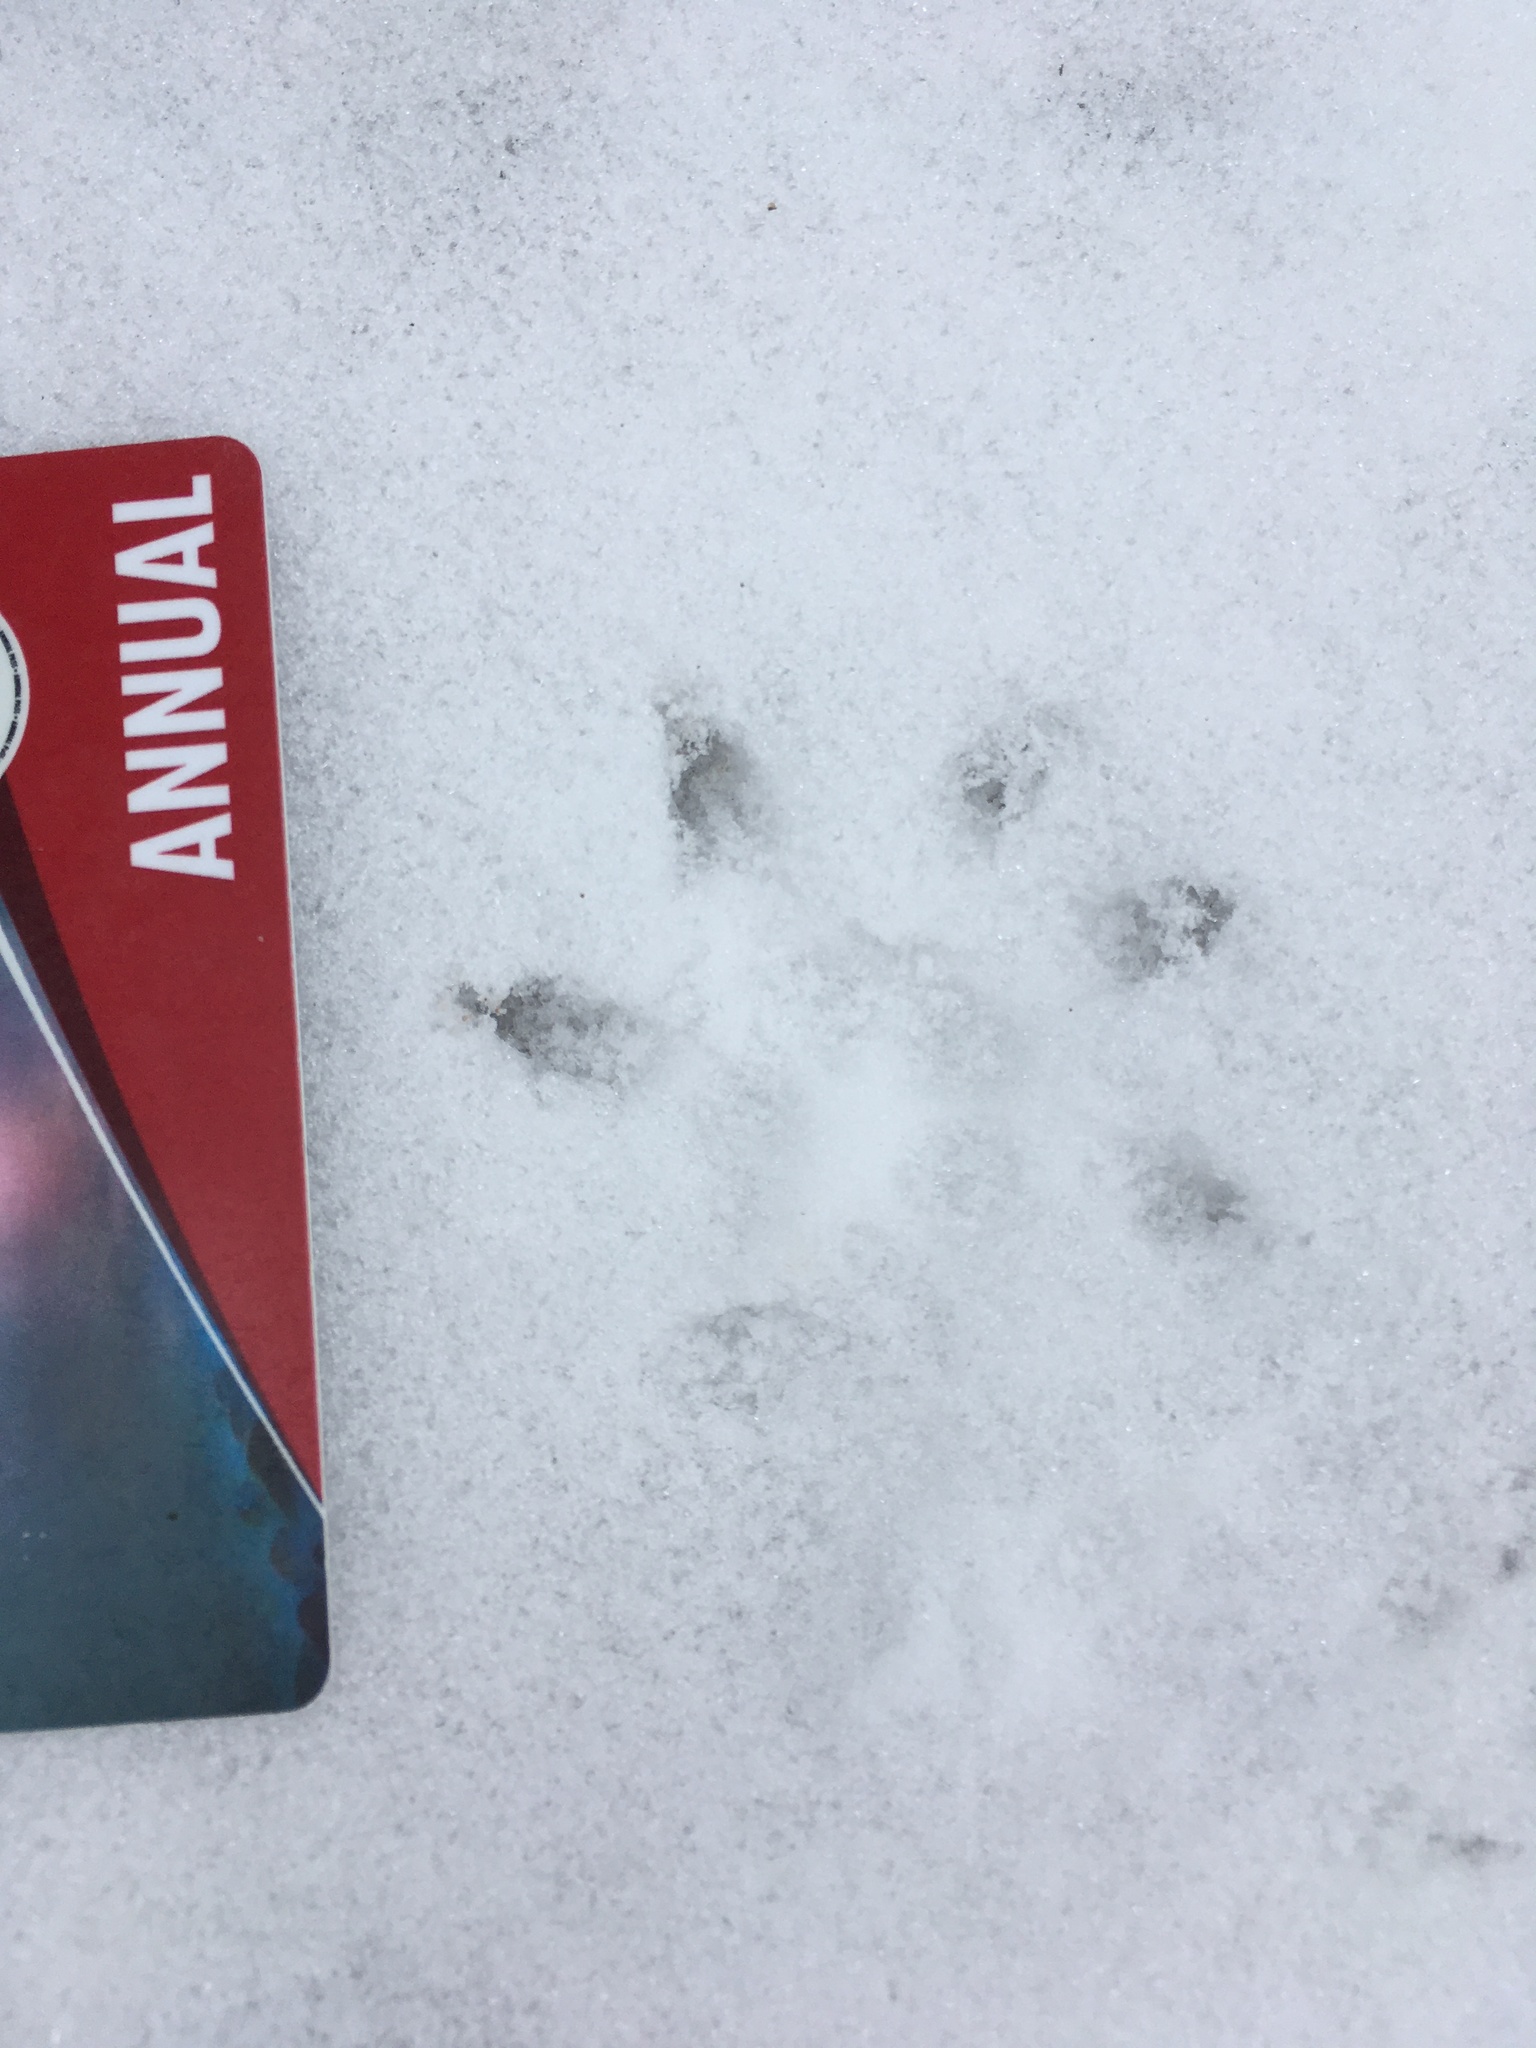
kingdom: Animalia
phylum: Chordata
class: Mammalia
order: Didelphimorphia
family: Didelphidae
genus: Didelphis
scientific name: Didelphis virginiana
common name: Virginia opossum
